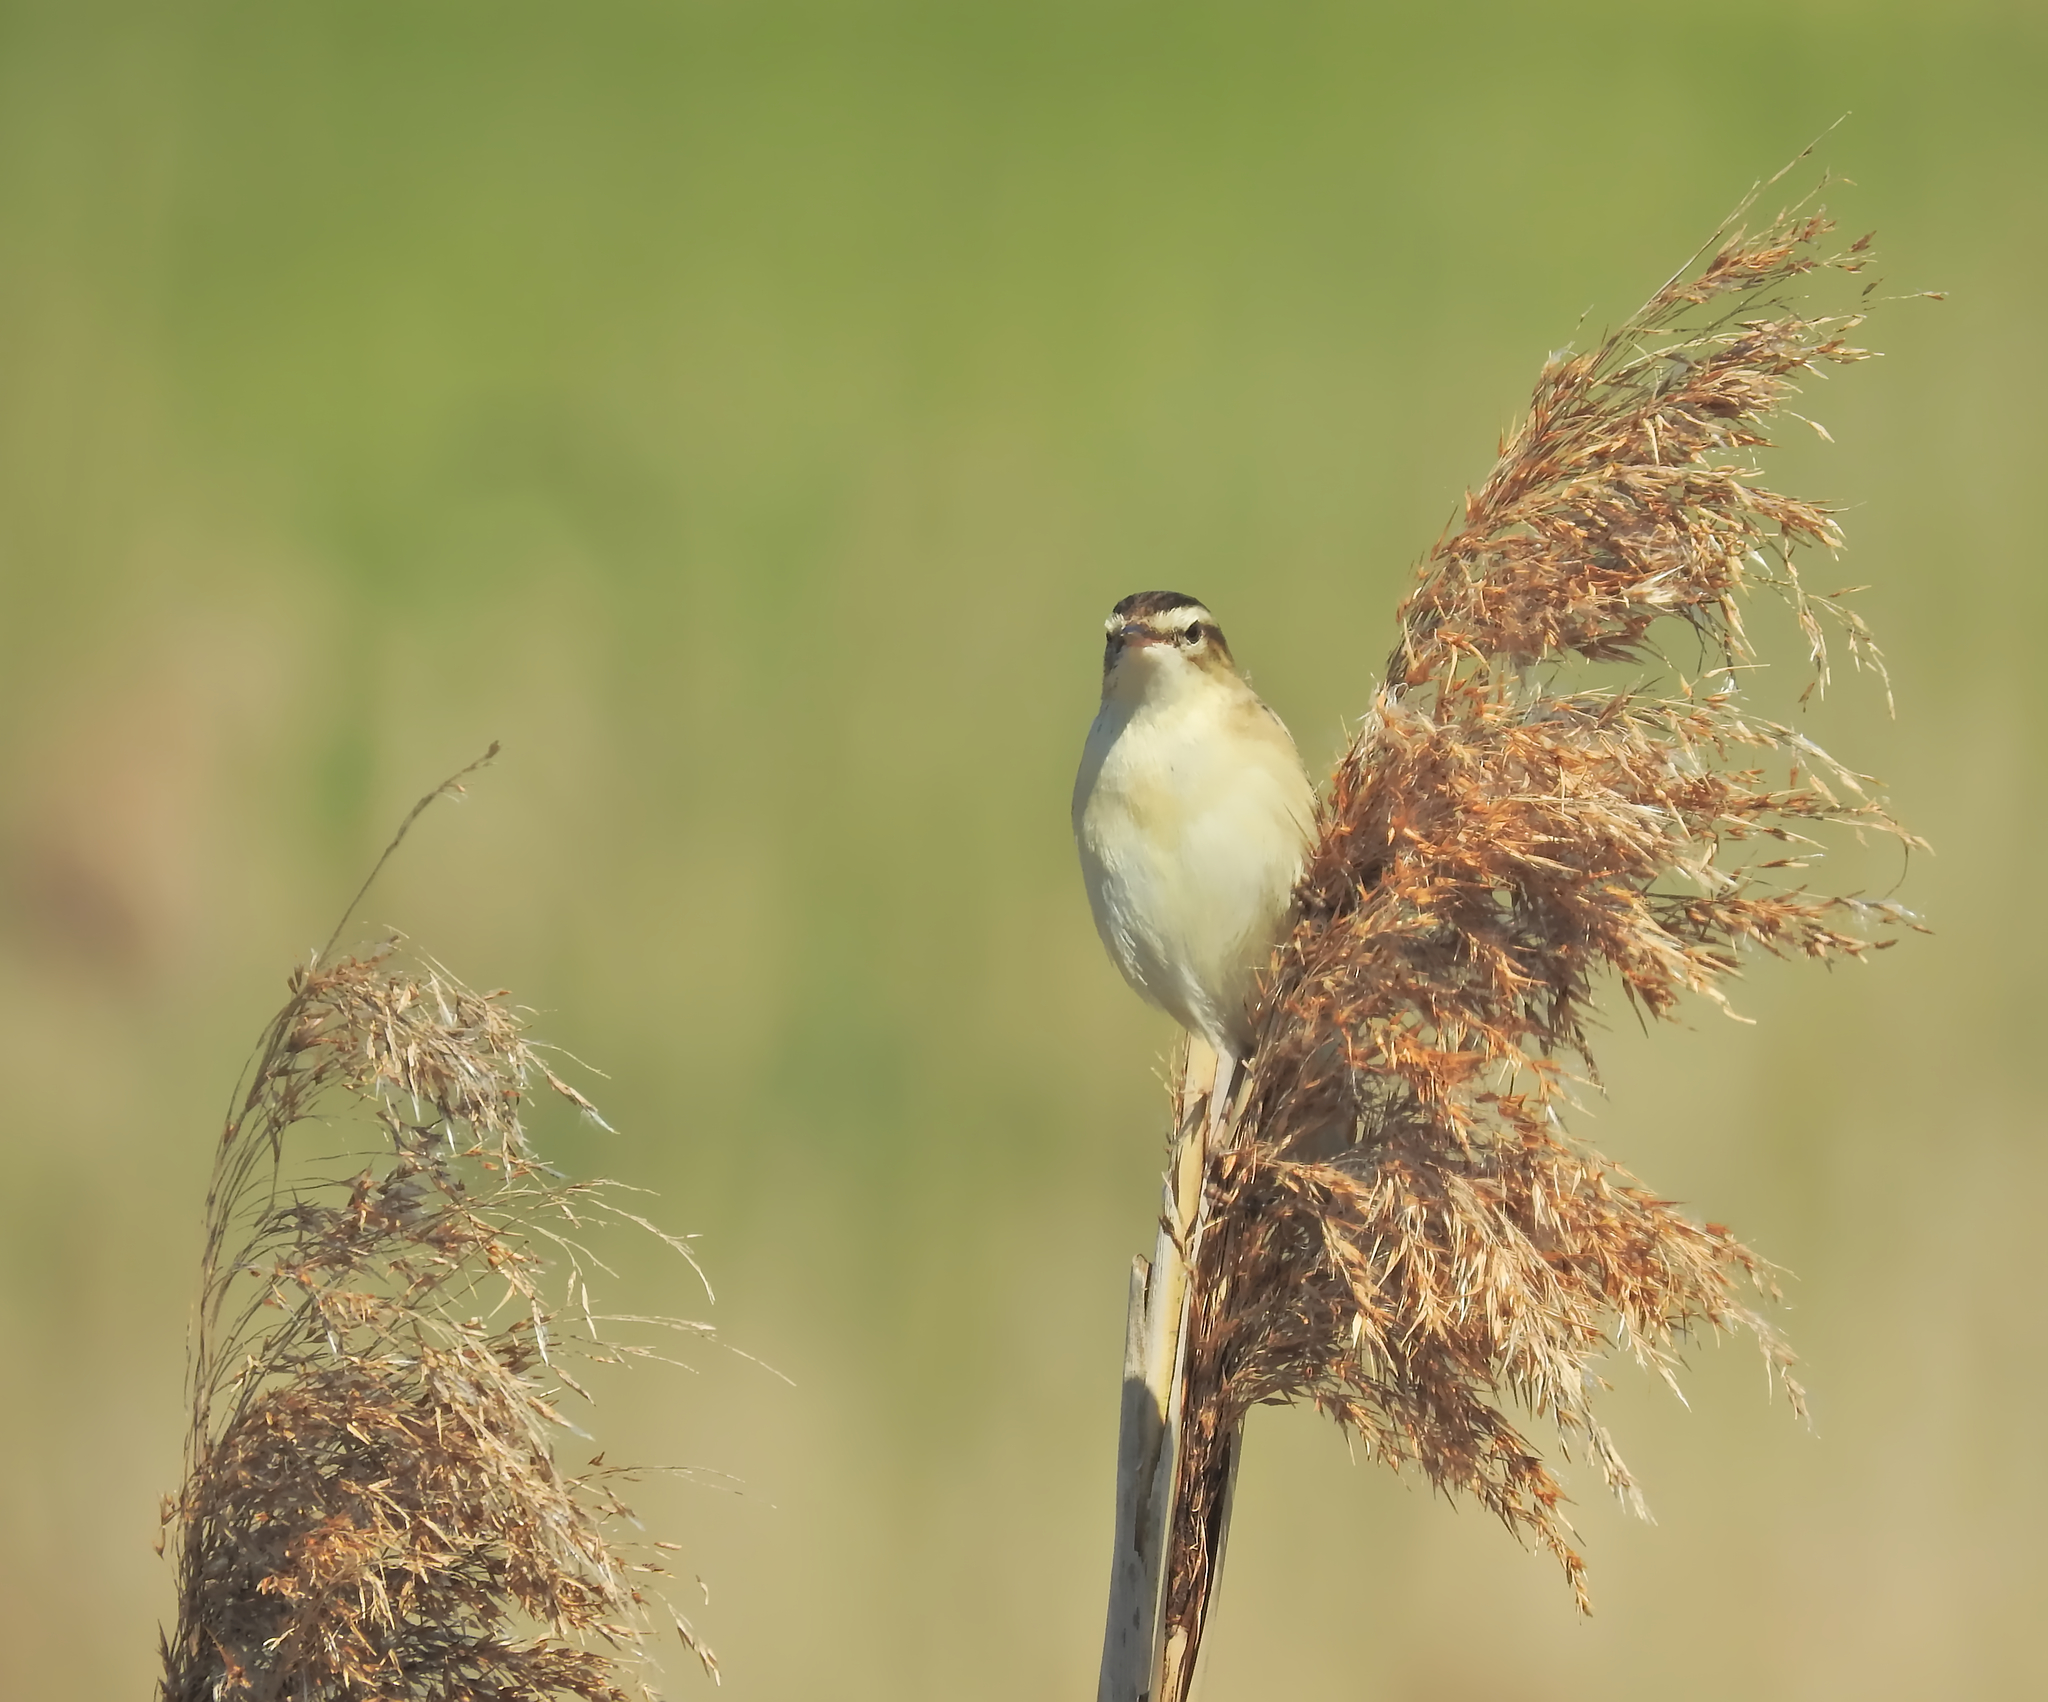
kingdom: Animalia
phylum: Chordata
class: Aves
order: Passeriformes
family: Acrocephalidae
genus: Acrocephalus
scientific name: Acrocephalus schoenobaenus
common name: Sedge warbler
